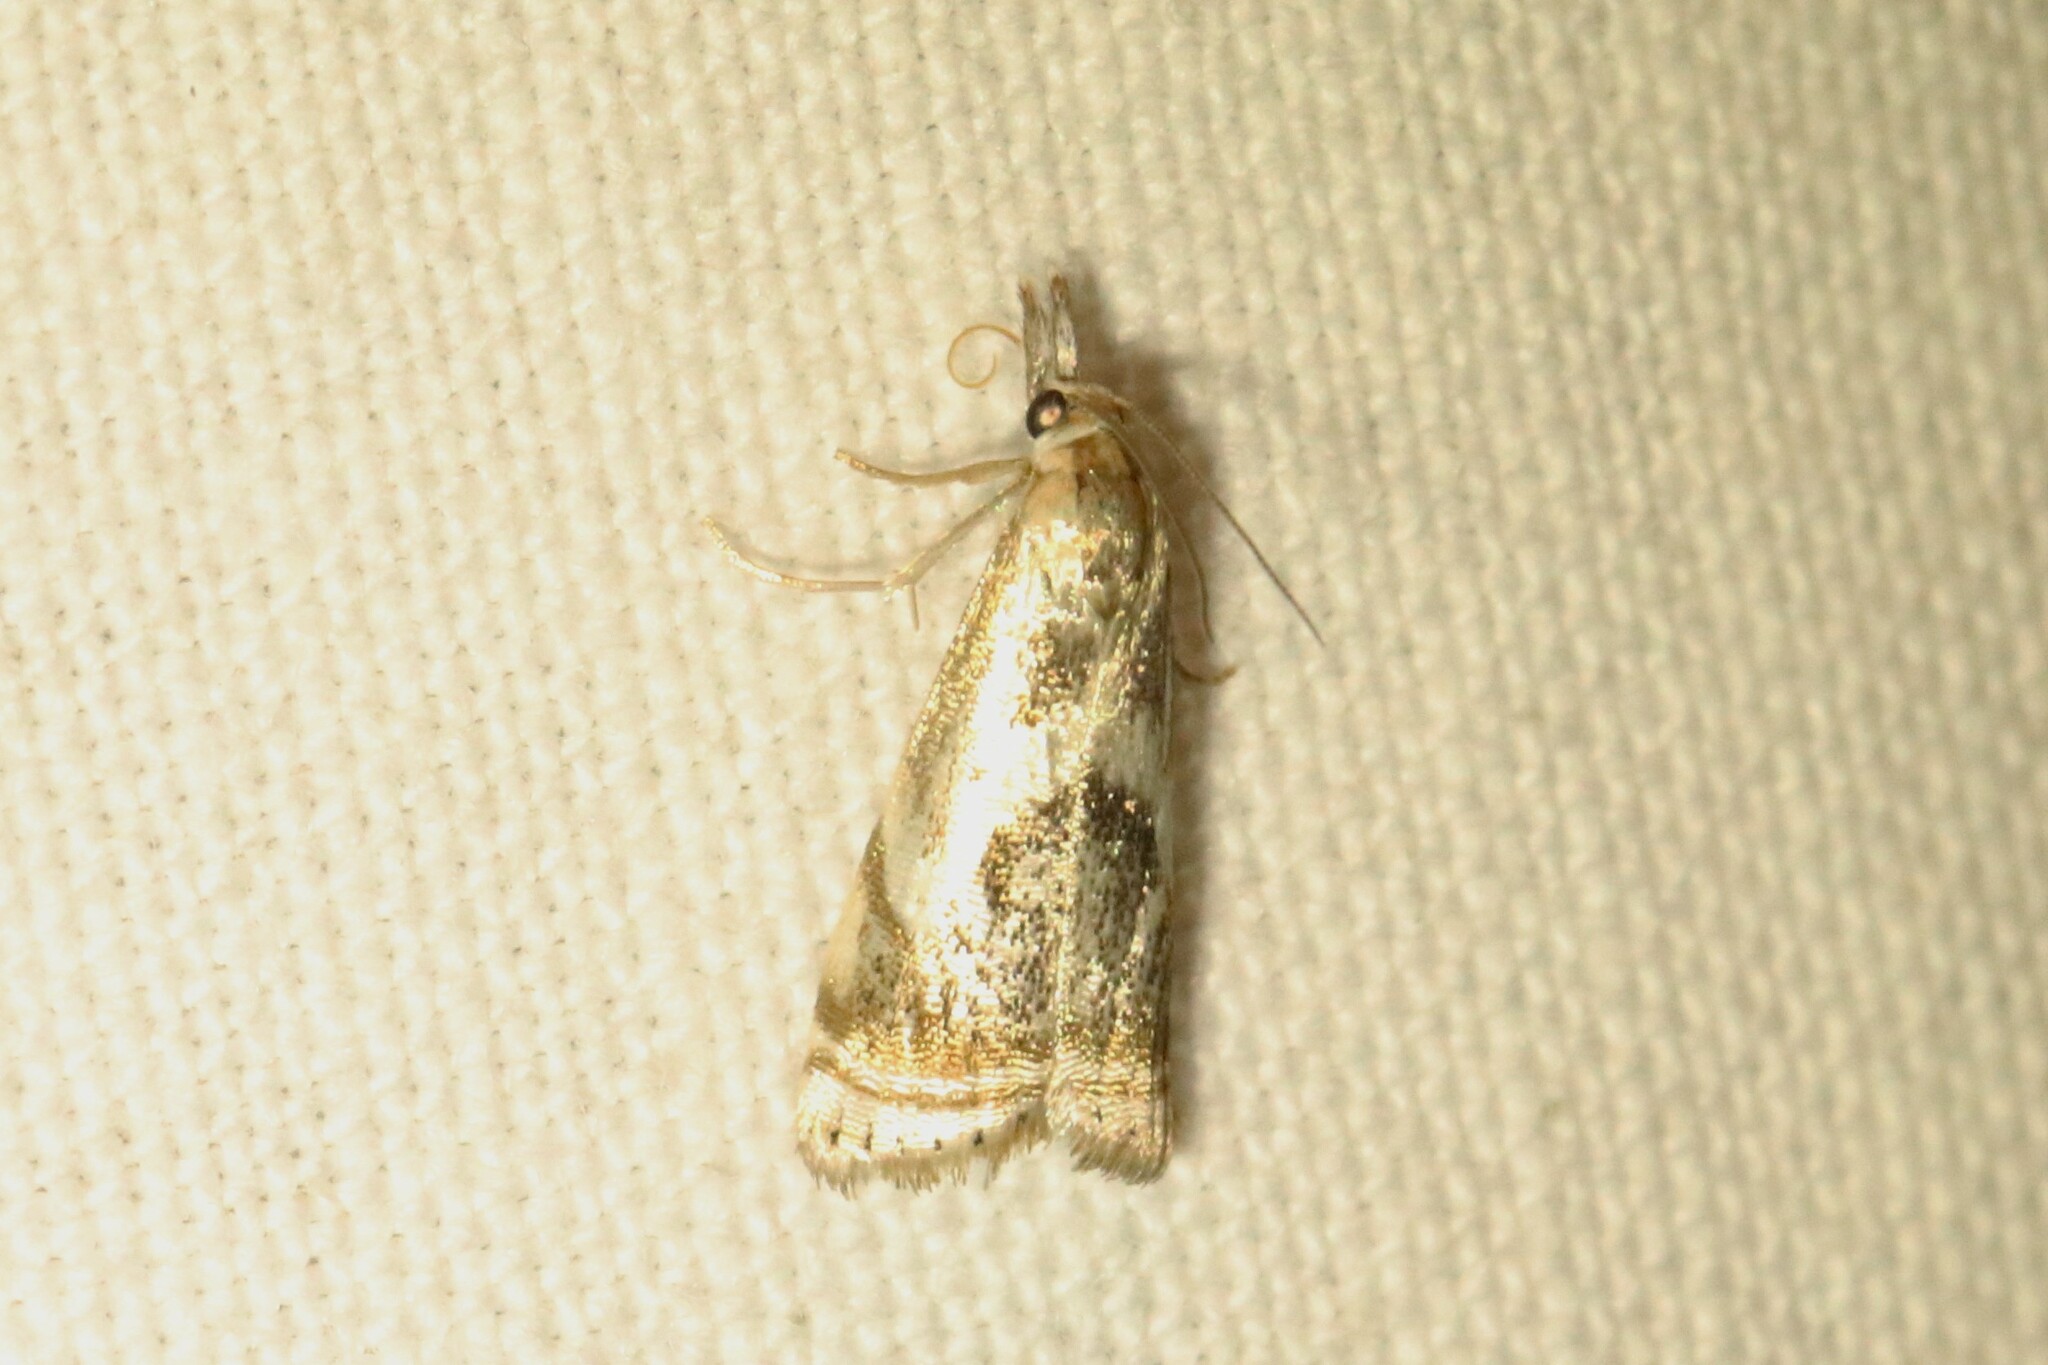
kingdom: Animalia
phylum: Arthropoda
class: Insecta
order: Lepidoptera
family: Crambidae
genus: Microcrambus
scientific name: Microcrambus elegans
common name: Elegant grass-veneer
